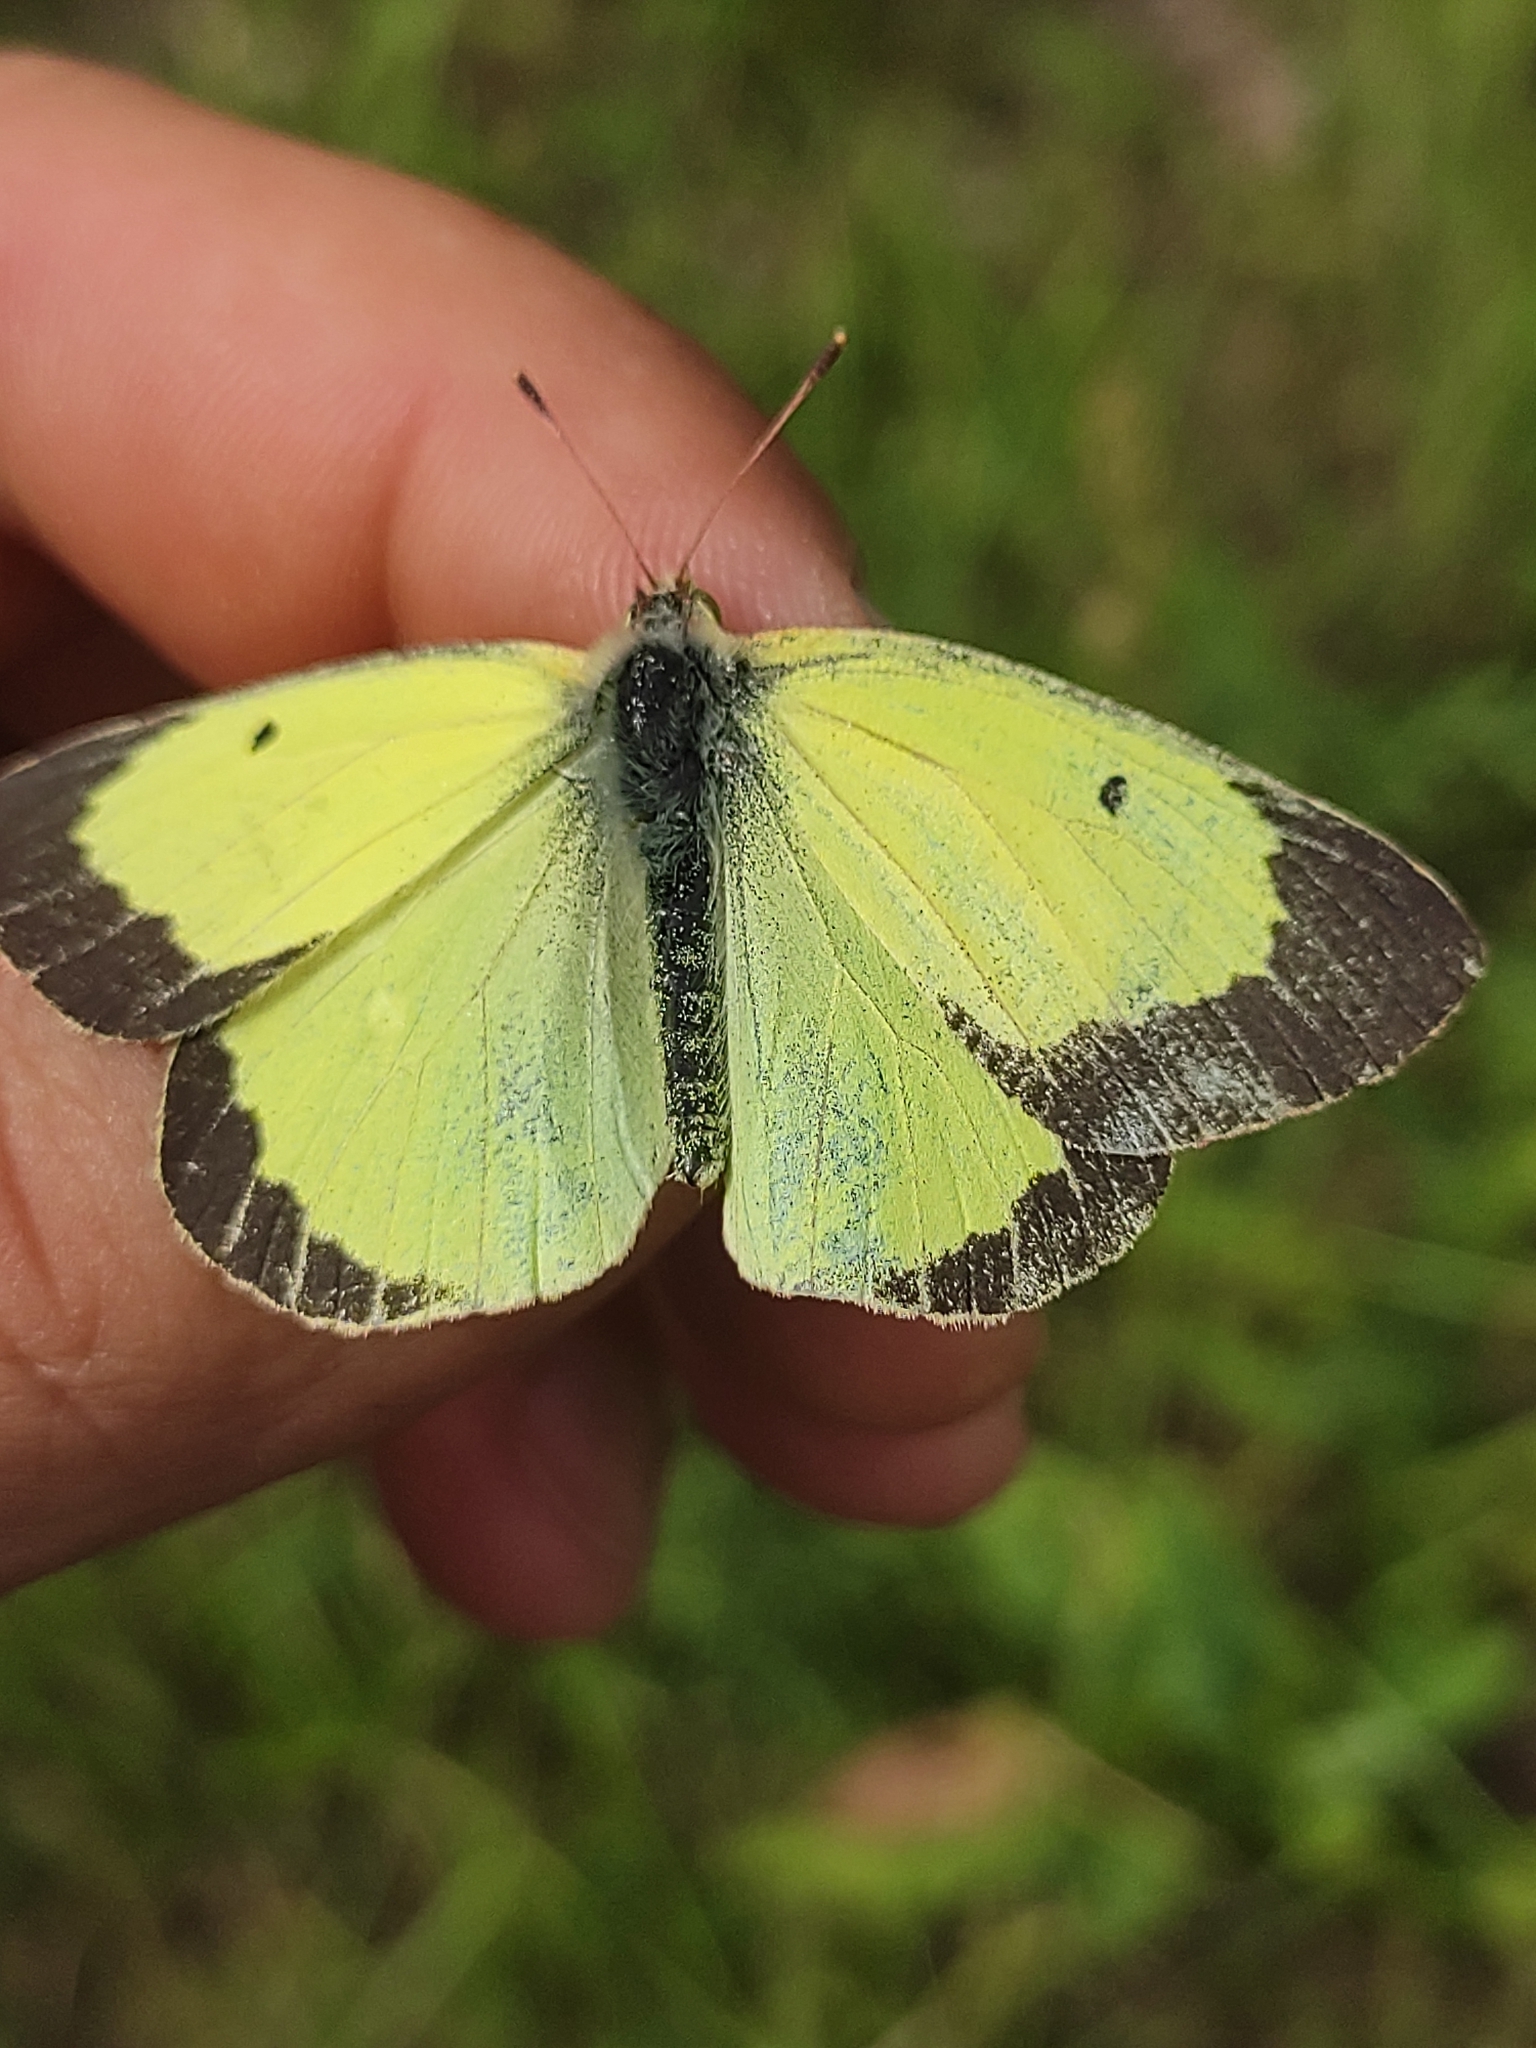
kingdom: Animalia
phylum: Arthropoda
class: Insecta
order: Lepidoptera
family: Pieridae
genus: Colias
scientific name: Colias palaeno
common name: Moorland clouded yellow
